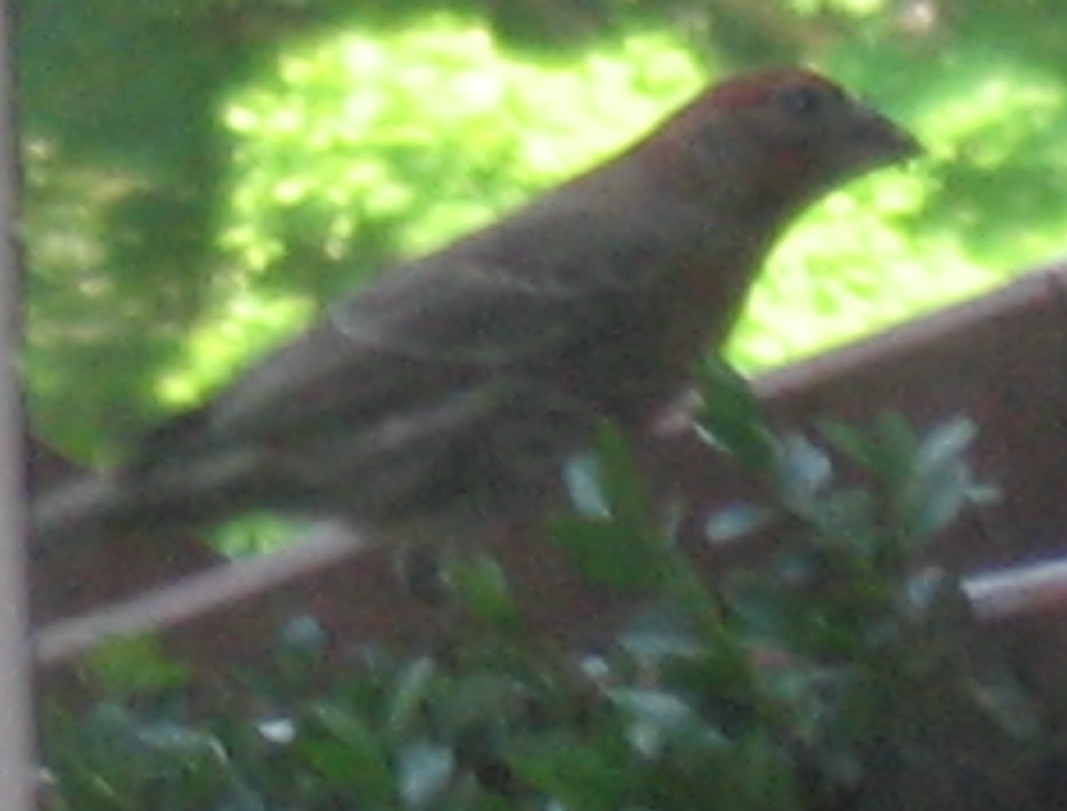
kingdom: Animalia
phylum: Chordata
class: Aves
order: Passeriformes
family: Fringillidae
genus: Haemorhous
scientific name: Haemorhous mexicanus
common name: House finch
